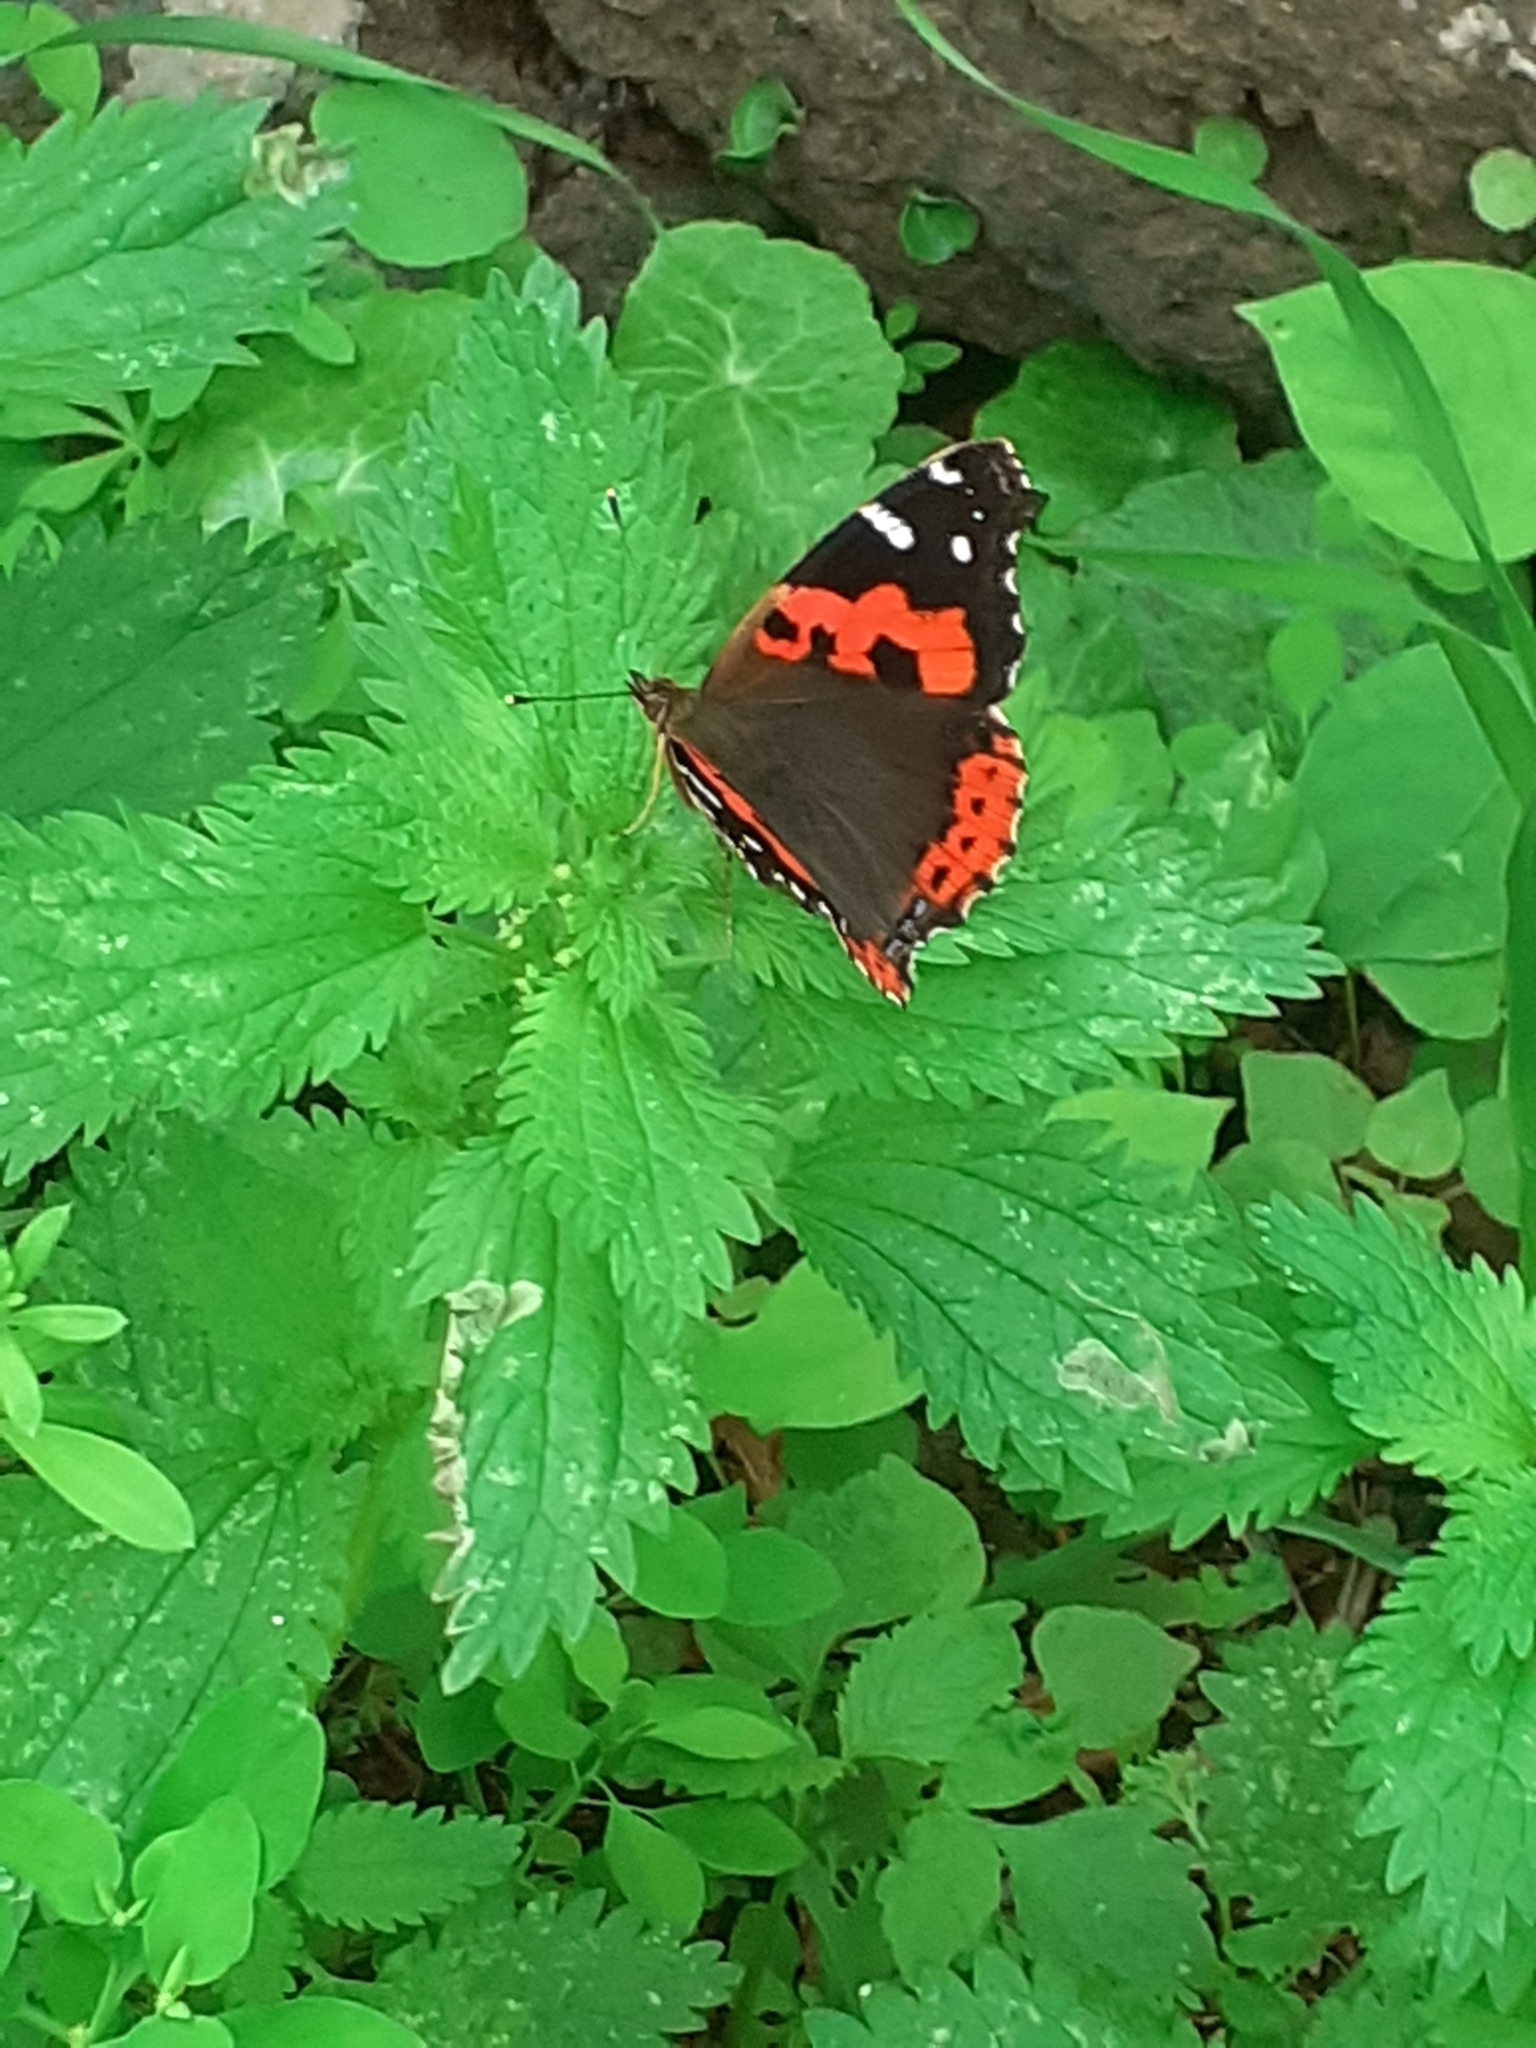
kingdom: Animalia
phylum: Arthropoda
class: Insecta
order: Lepidoptera
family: Nymphalidae
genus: Vanessa
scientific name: Vanessa vulcania
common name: Canary red admiral
